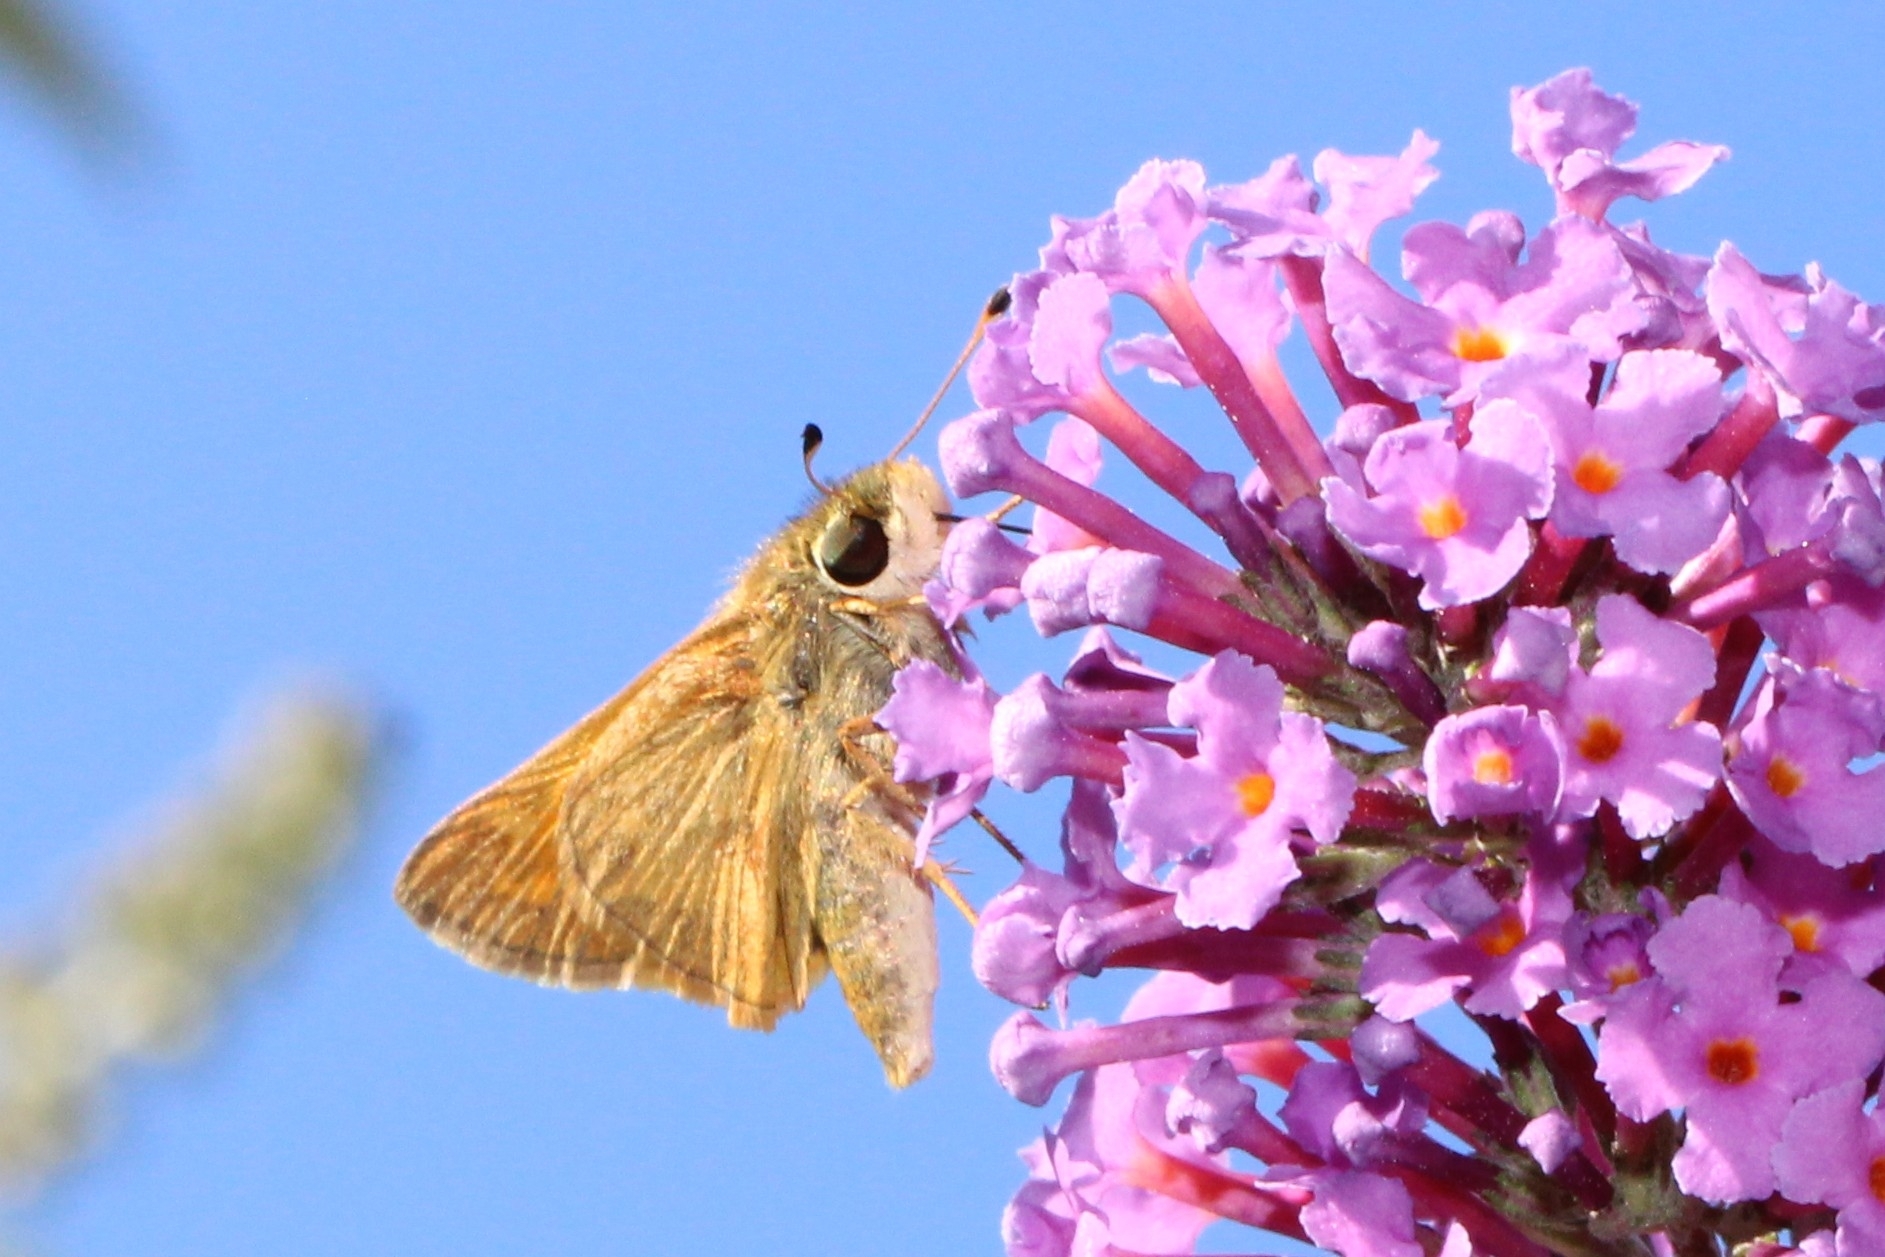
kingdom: Animalia
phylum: Arthropoda
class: Insecta
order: Lepidoptera
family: Hesperiidae
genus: Atalopedes
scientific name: Atalopedes
